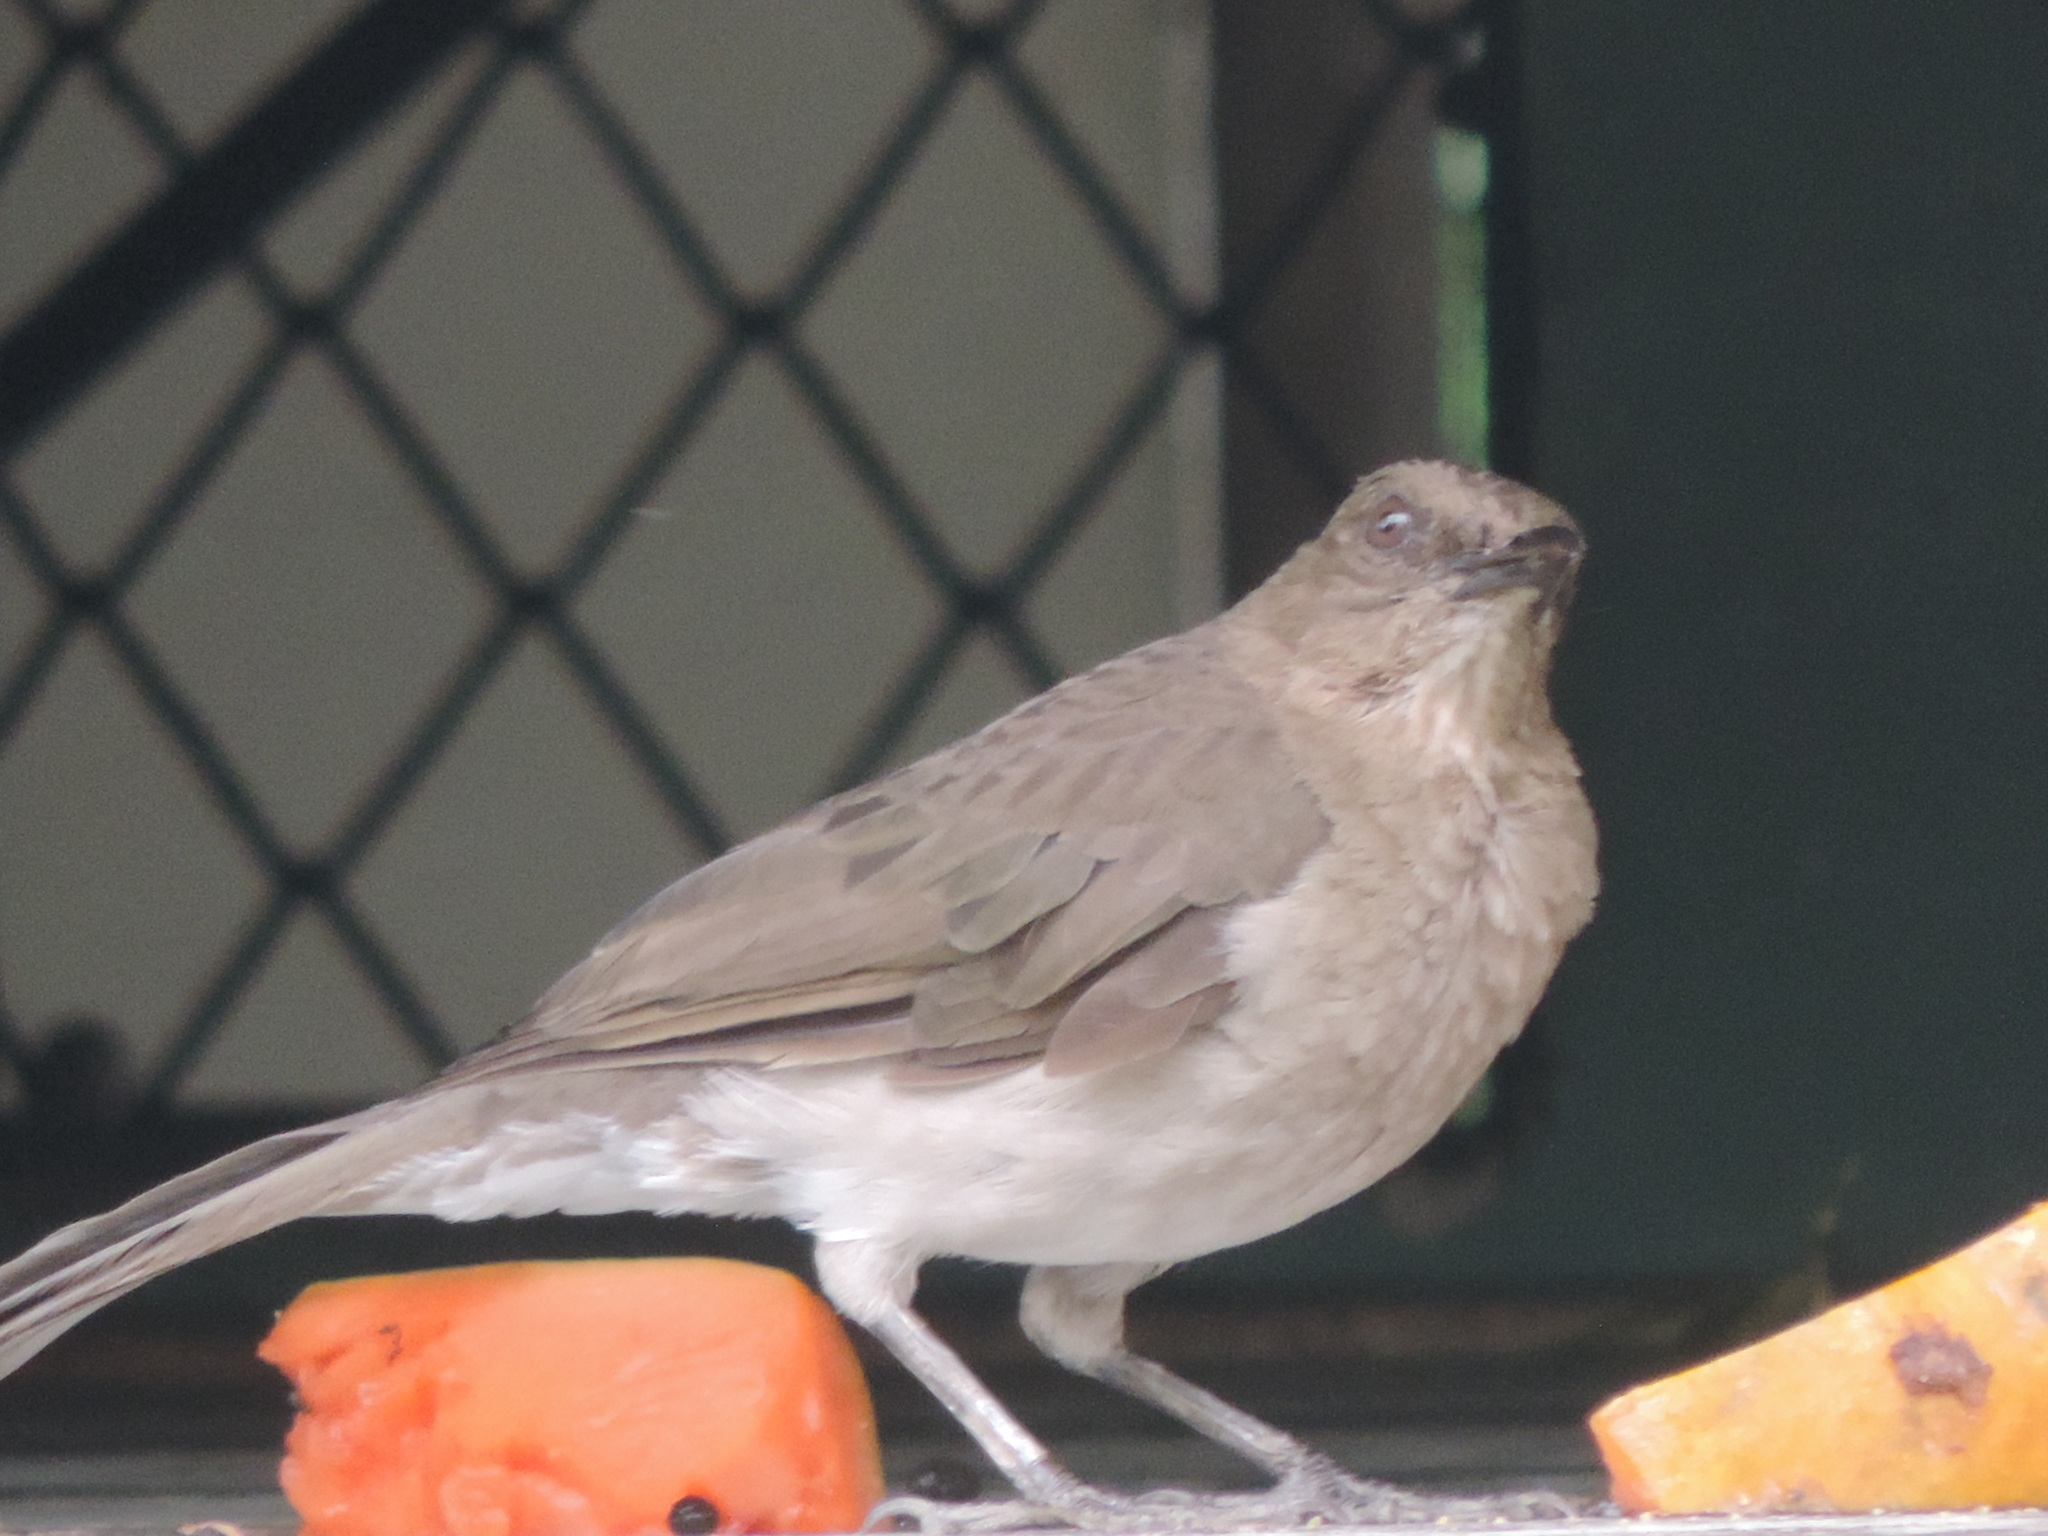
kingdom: Animalia
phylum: Chordata
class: Aves
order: Passeriformes
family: Turdidae
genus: Turdus
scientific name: Turdus ignobilis
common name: Black-billed thrush
